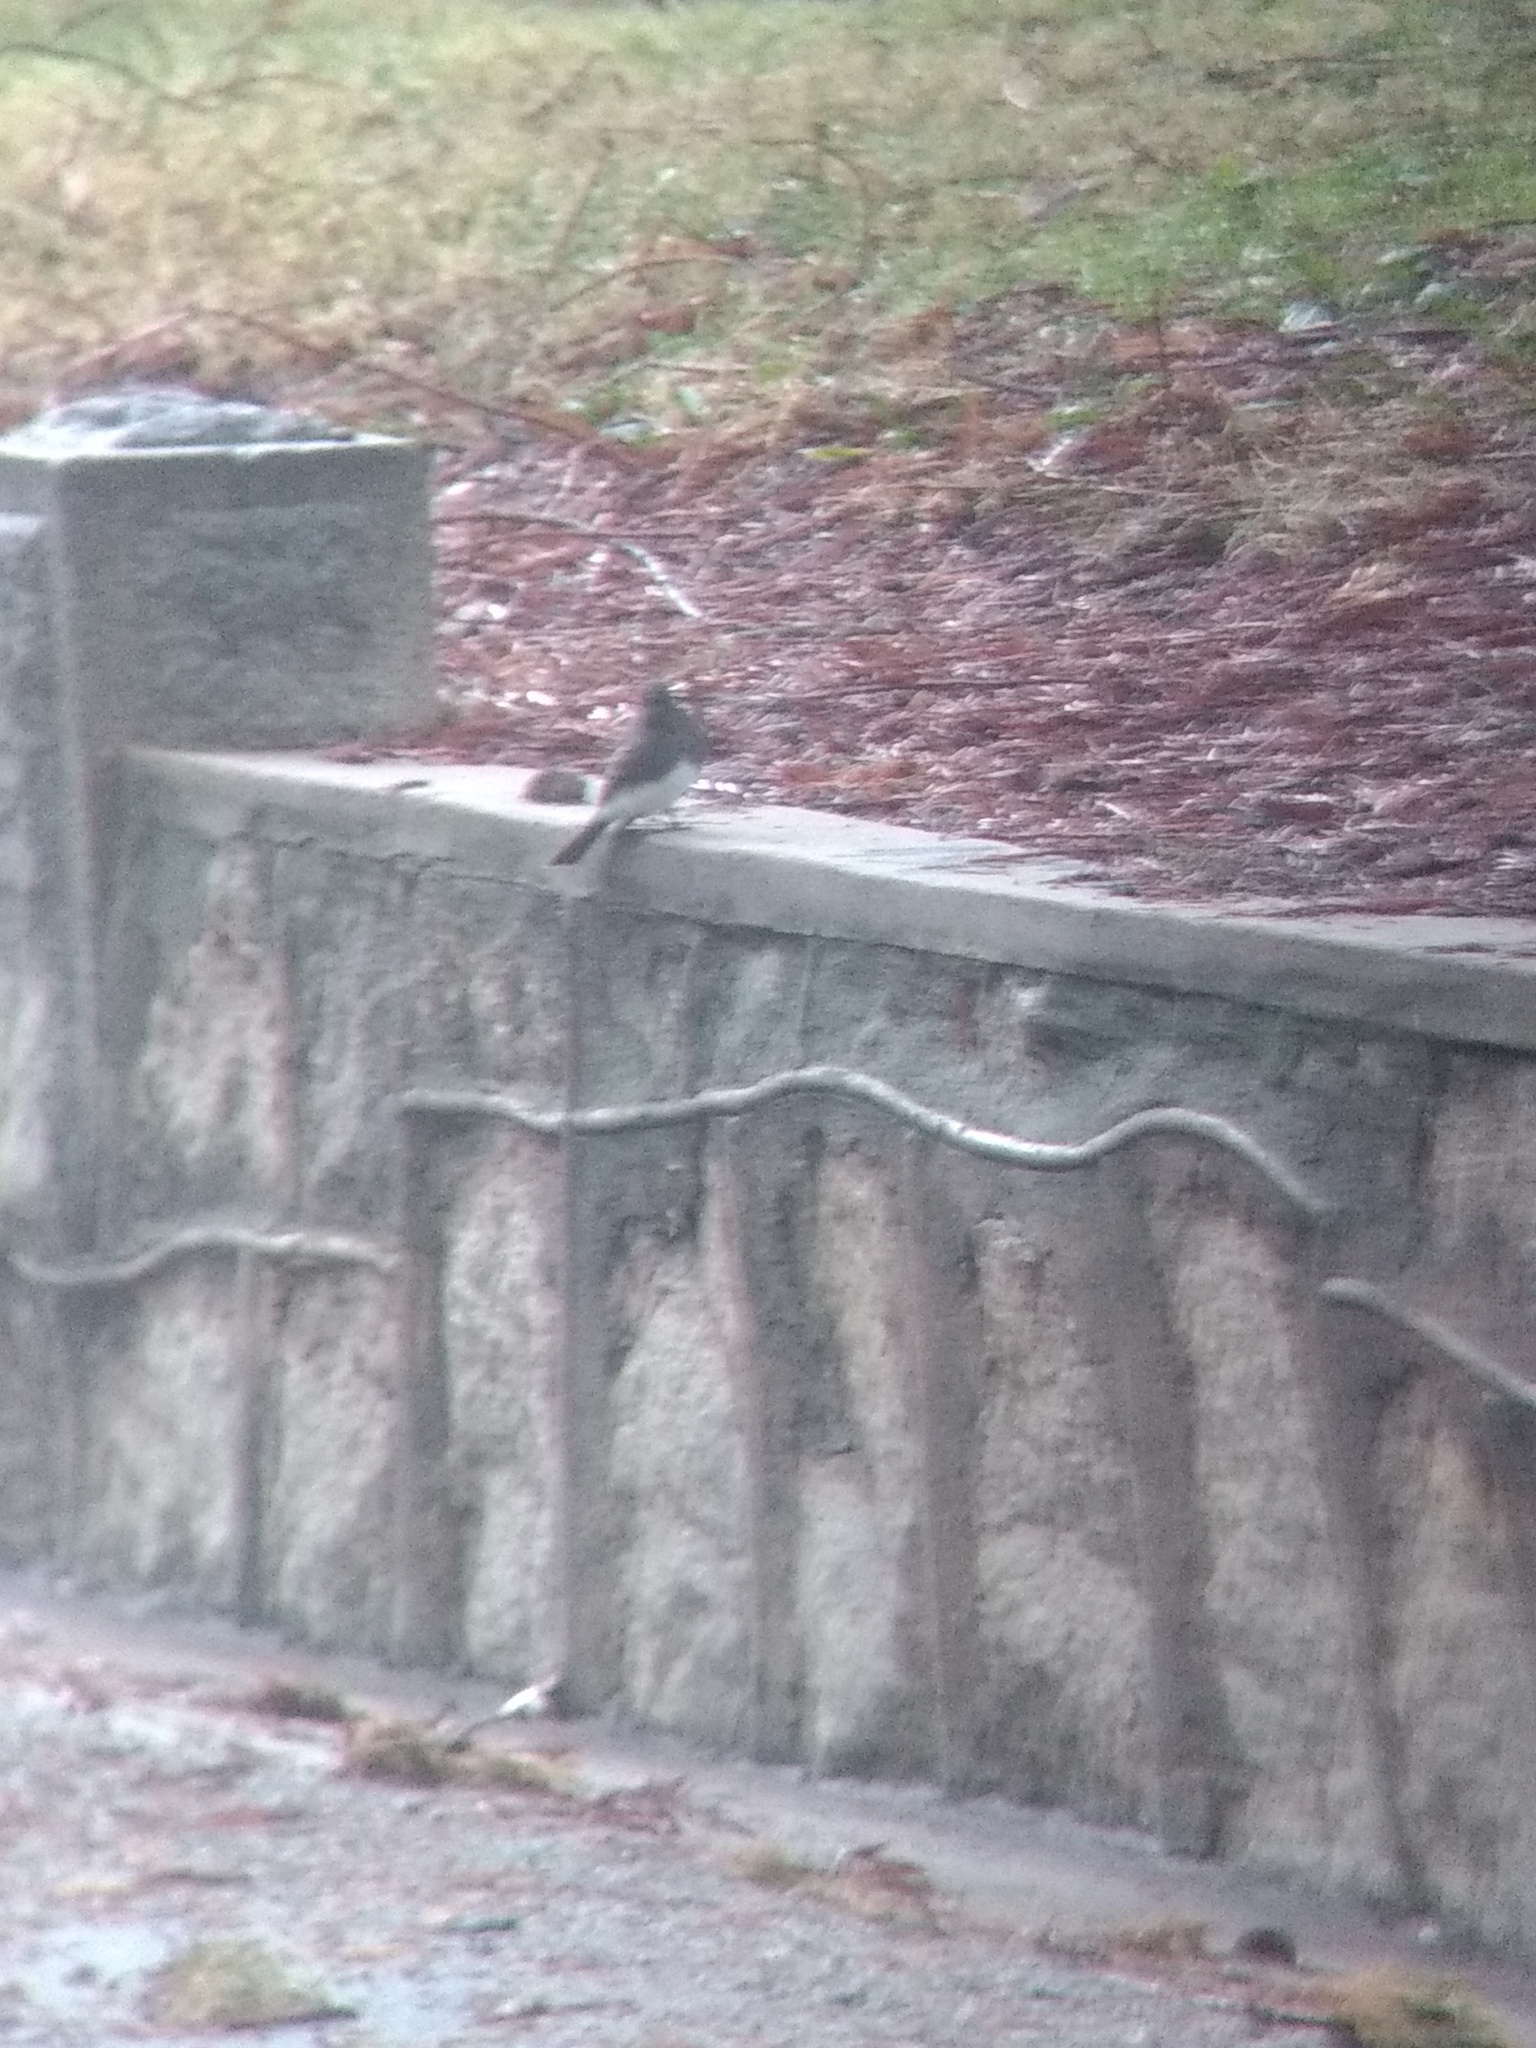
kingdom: Animalia
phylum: Chordata
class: Aves
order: Passeriformes
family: Tyrannidae
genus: Sayornis
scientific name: Sayornis nigricans
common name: Black phoebe
